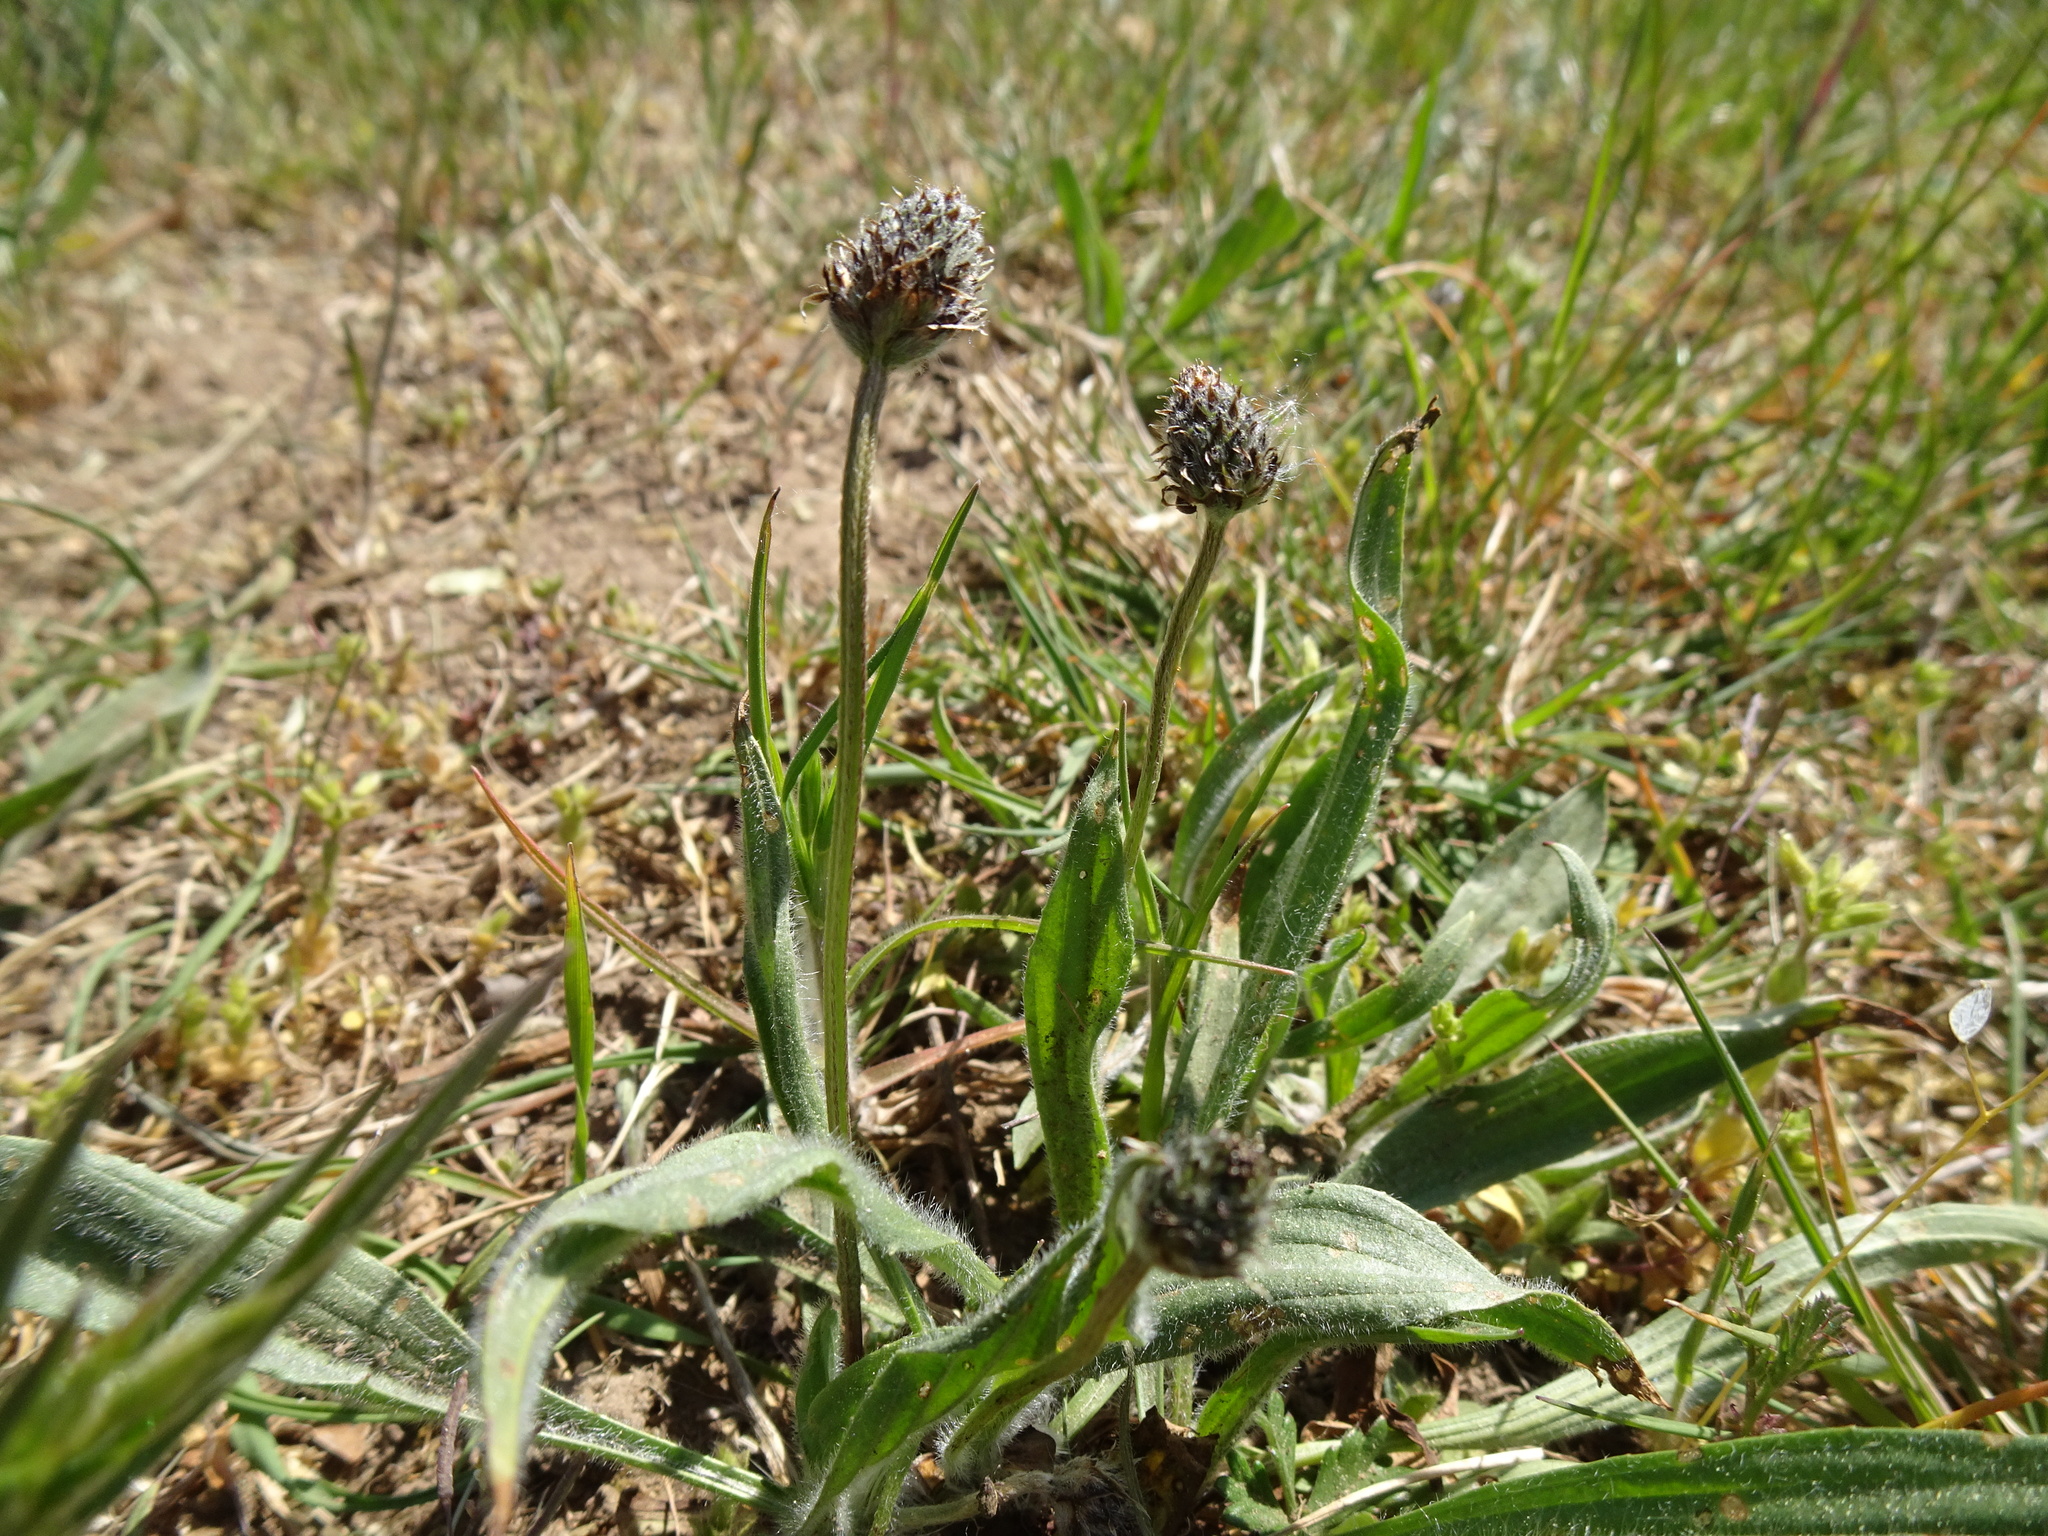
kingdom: Plantae
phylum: Tracheophyta
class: Magnoliopsida
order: Lamiales
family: Plantaginaceae
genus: Plantago
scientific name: Plantago lanceolata
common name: Ribwort plantain
